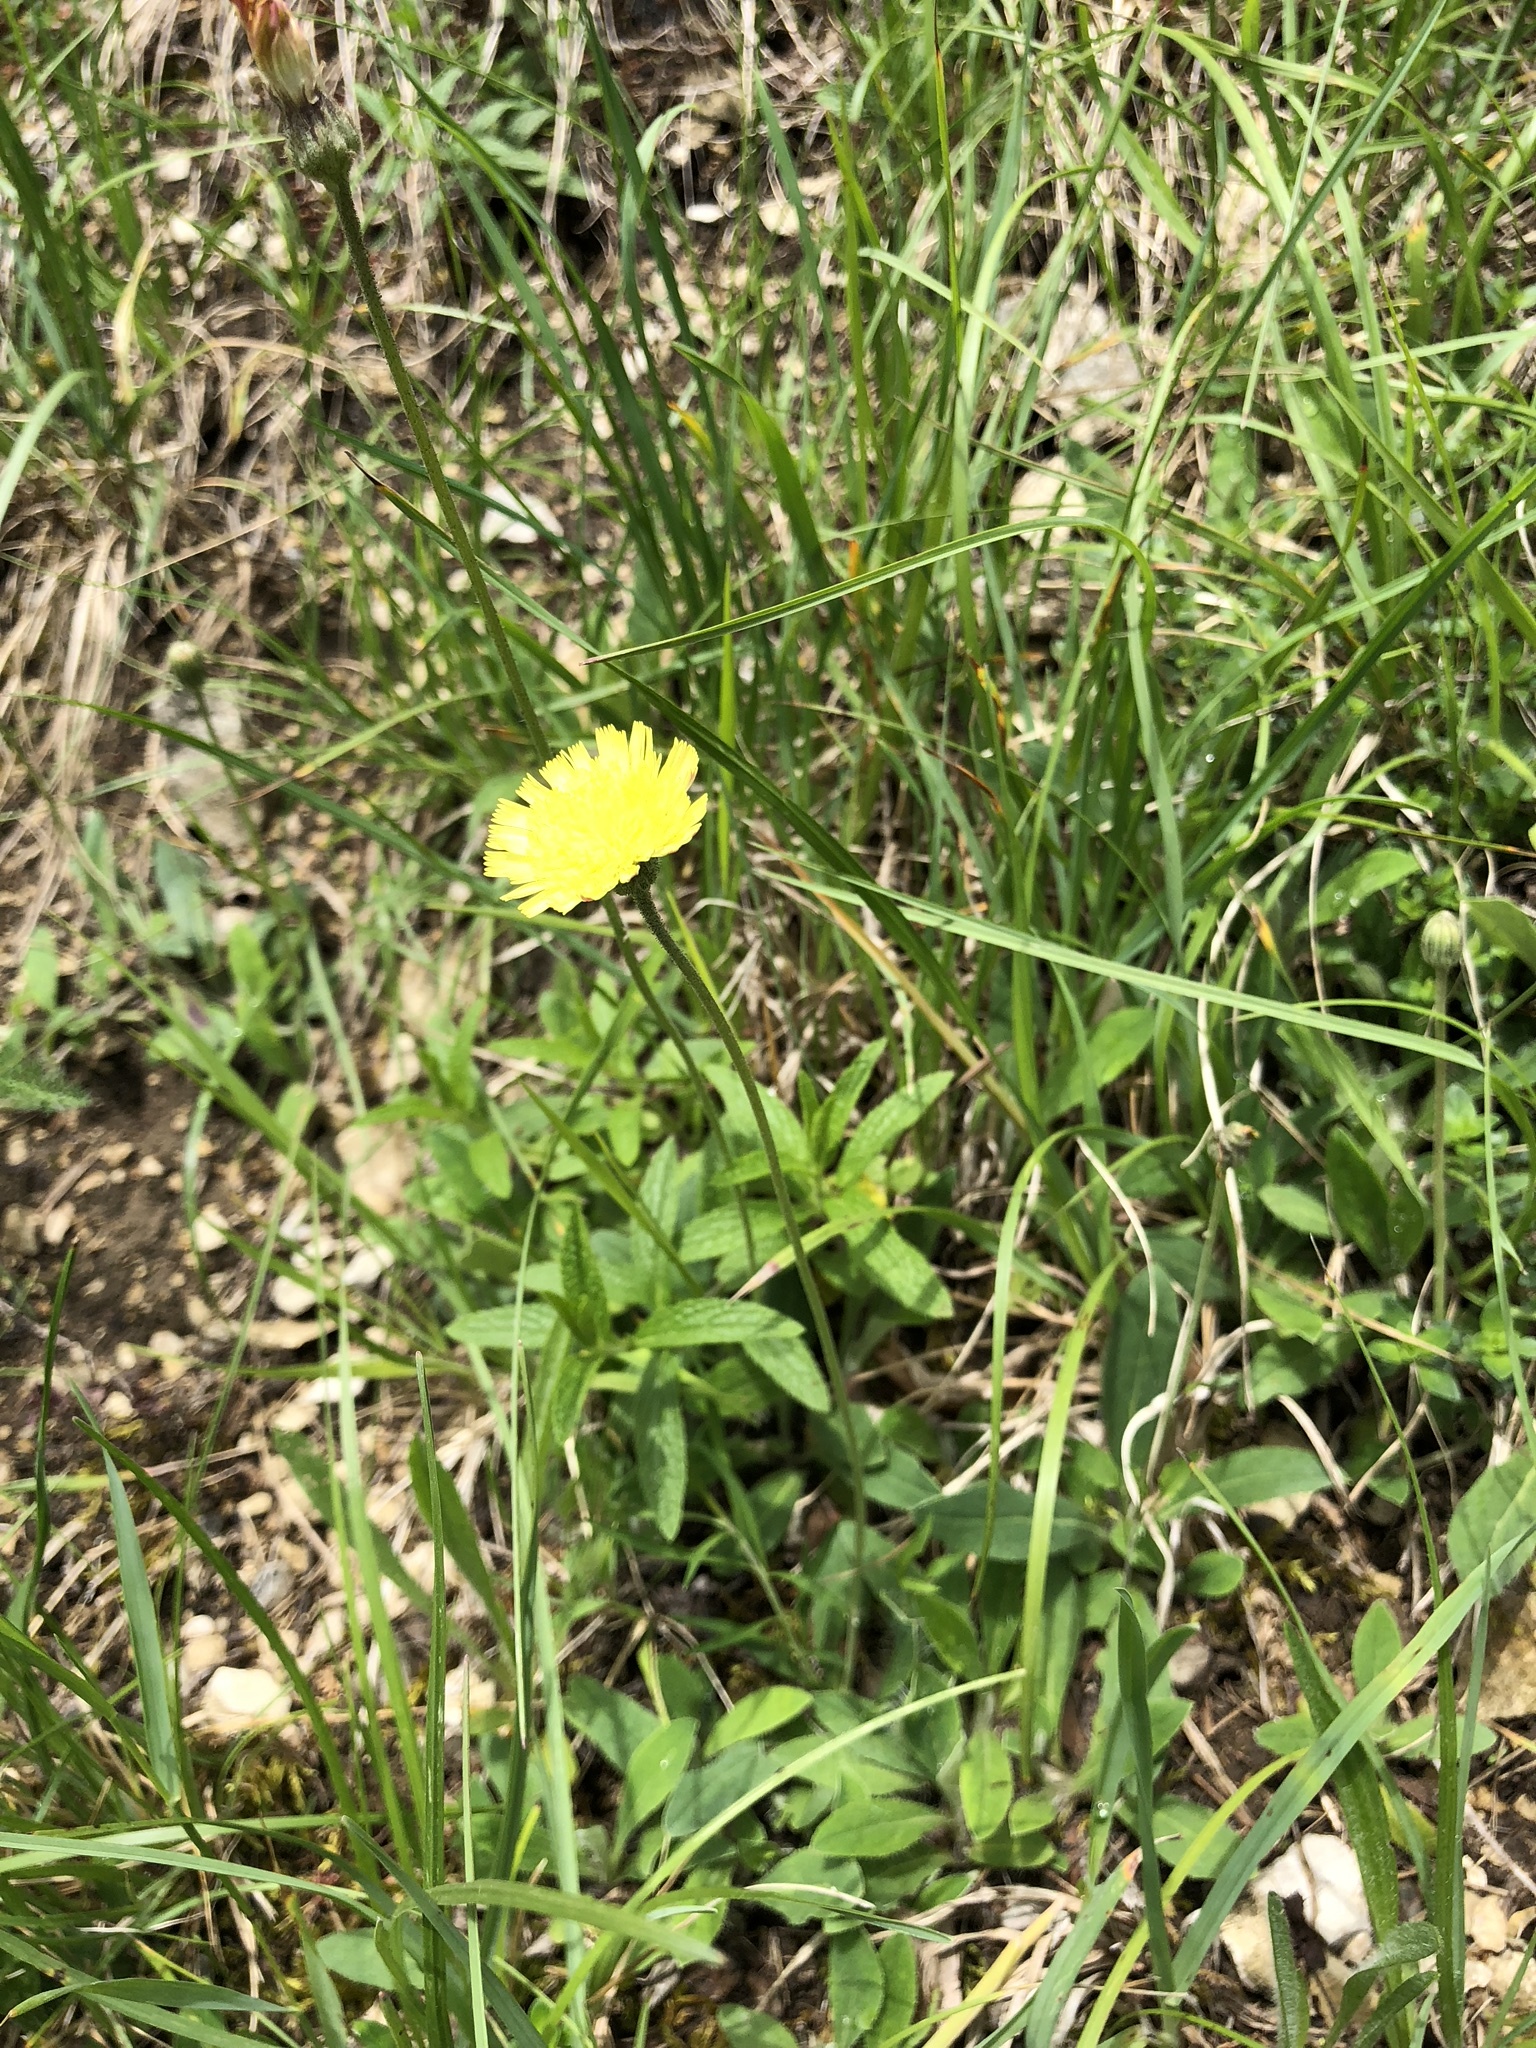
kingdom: Plantae
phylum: Tracheophyta
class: Magnoliopsida
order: Asterales
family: Asteraceae
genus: Pilosella
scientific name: Pilosella officinarum
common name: Mouse-ear hawkweed
